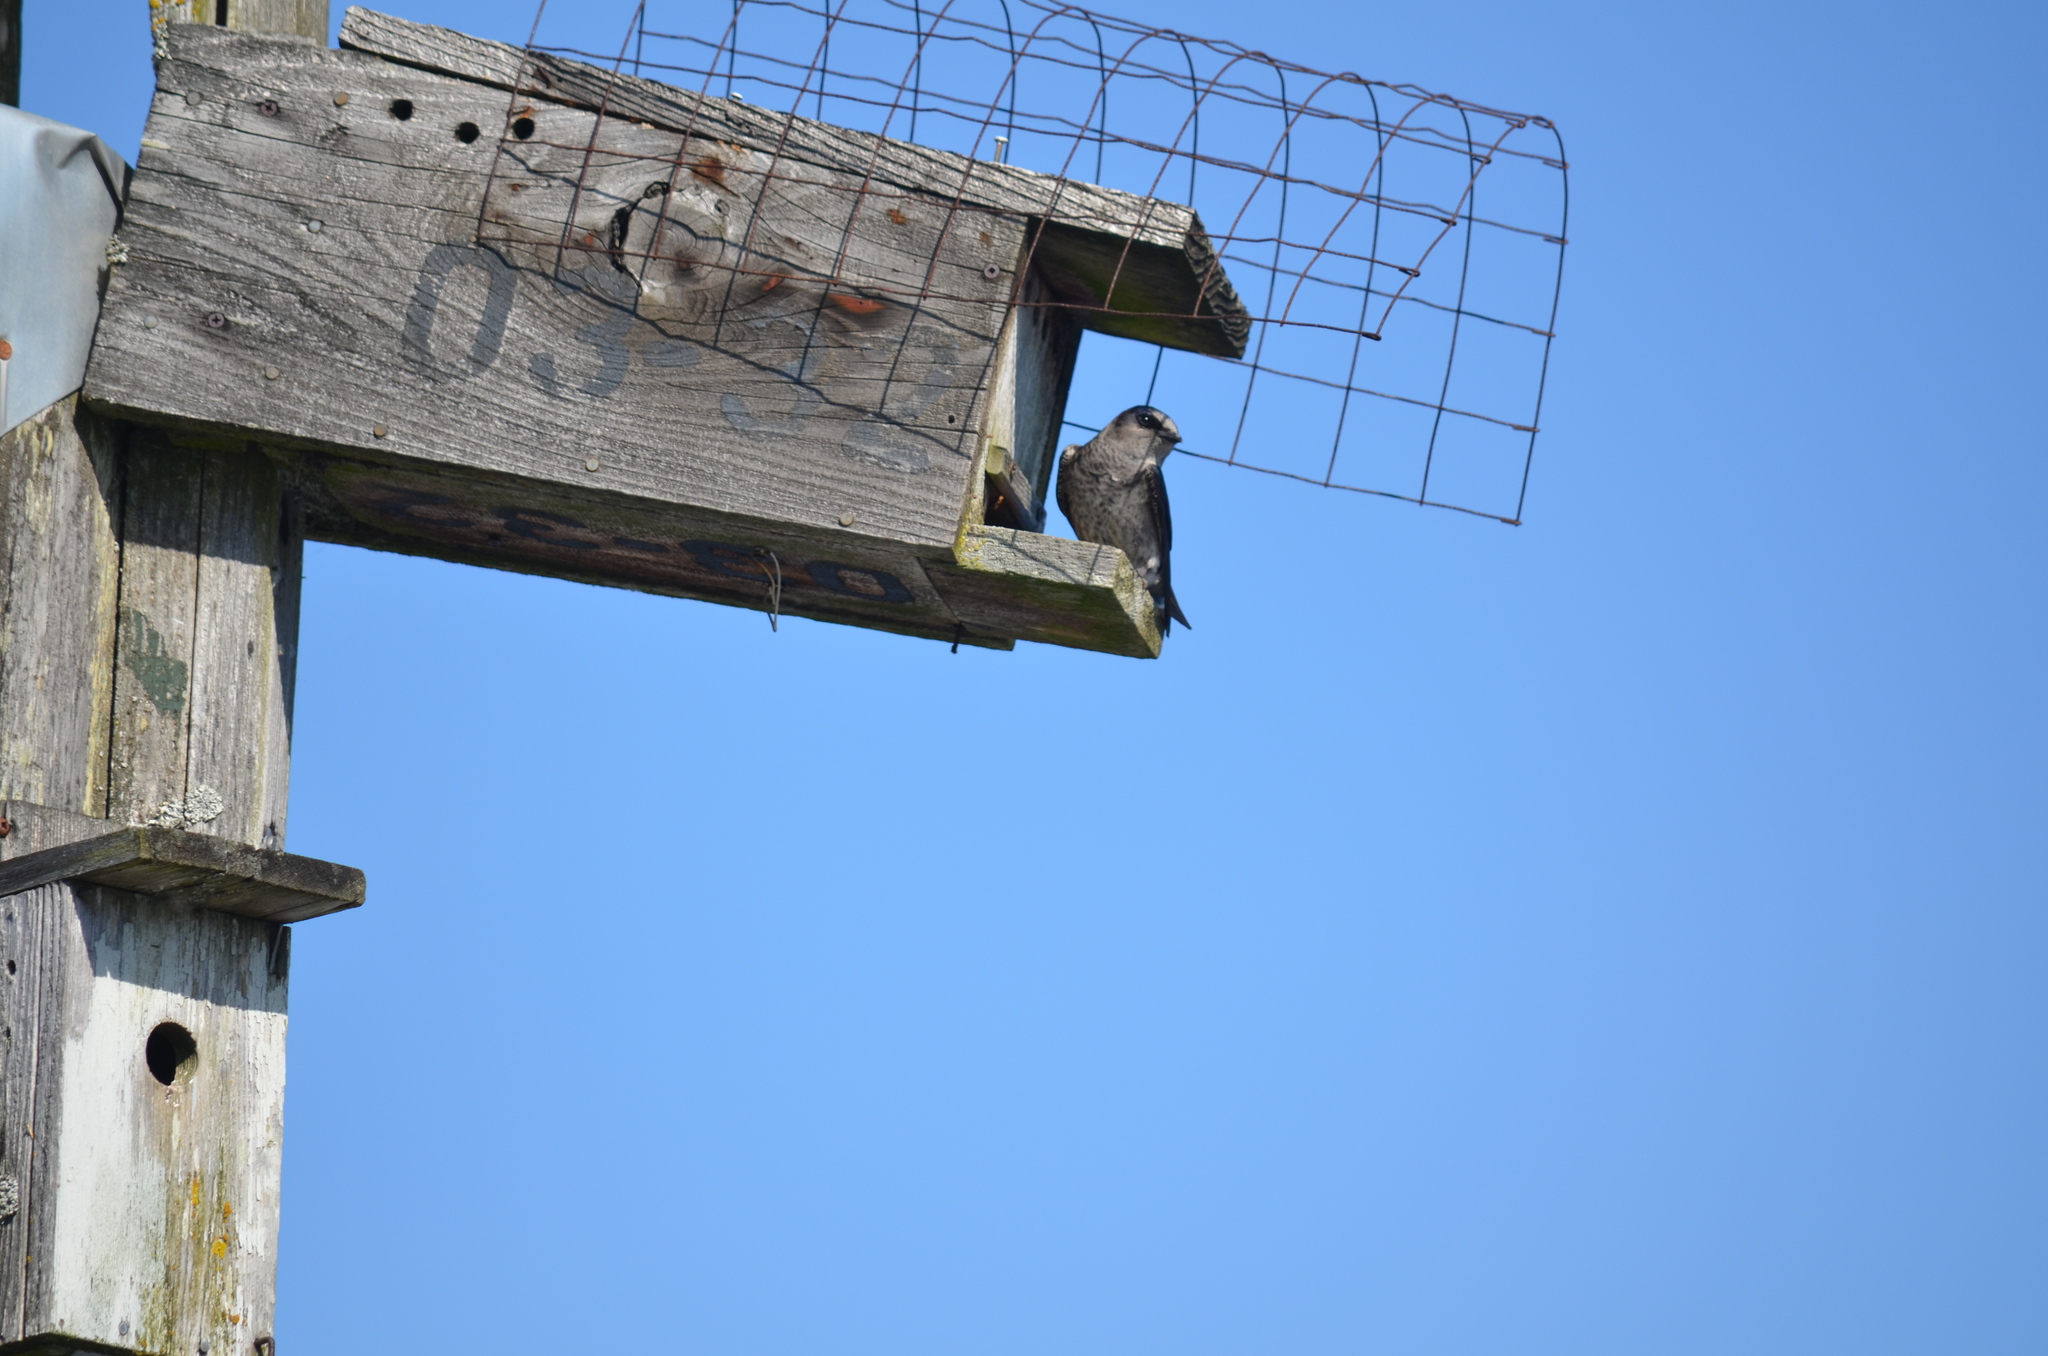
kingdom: Animalia
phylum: Chordata
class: Aves
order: Passeriformes
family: Hirundinidae
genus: Progne
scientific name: Progne subis
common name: Purple martin
